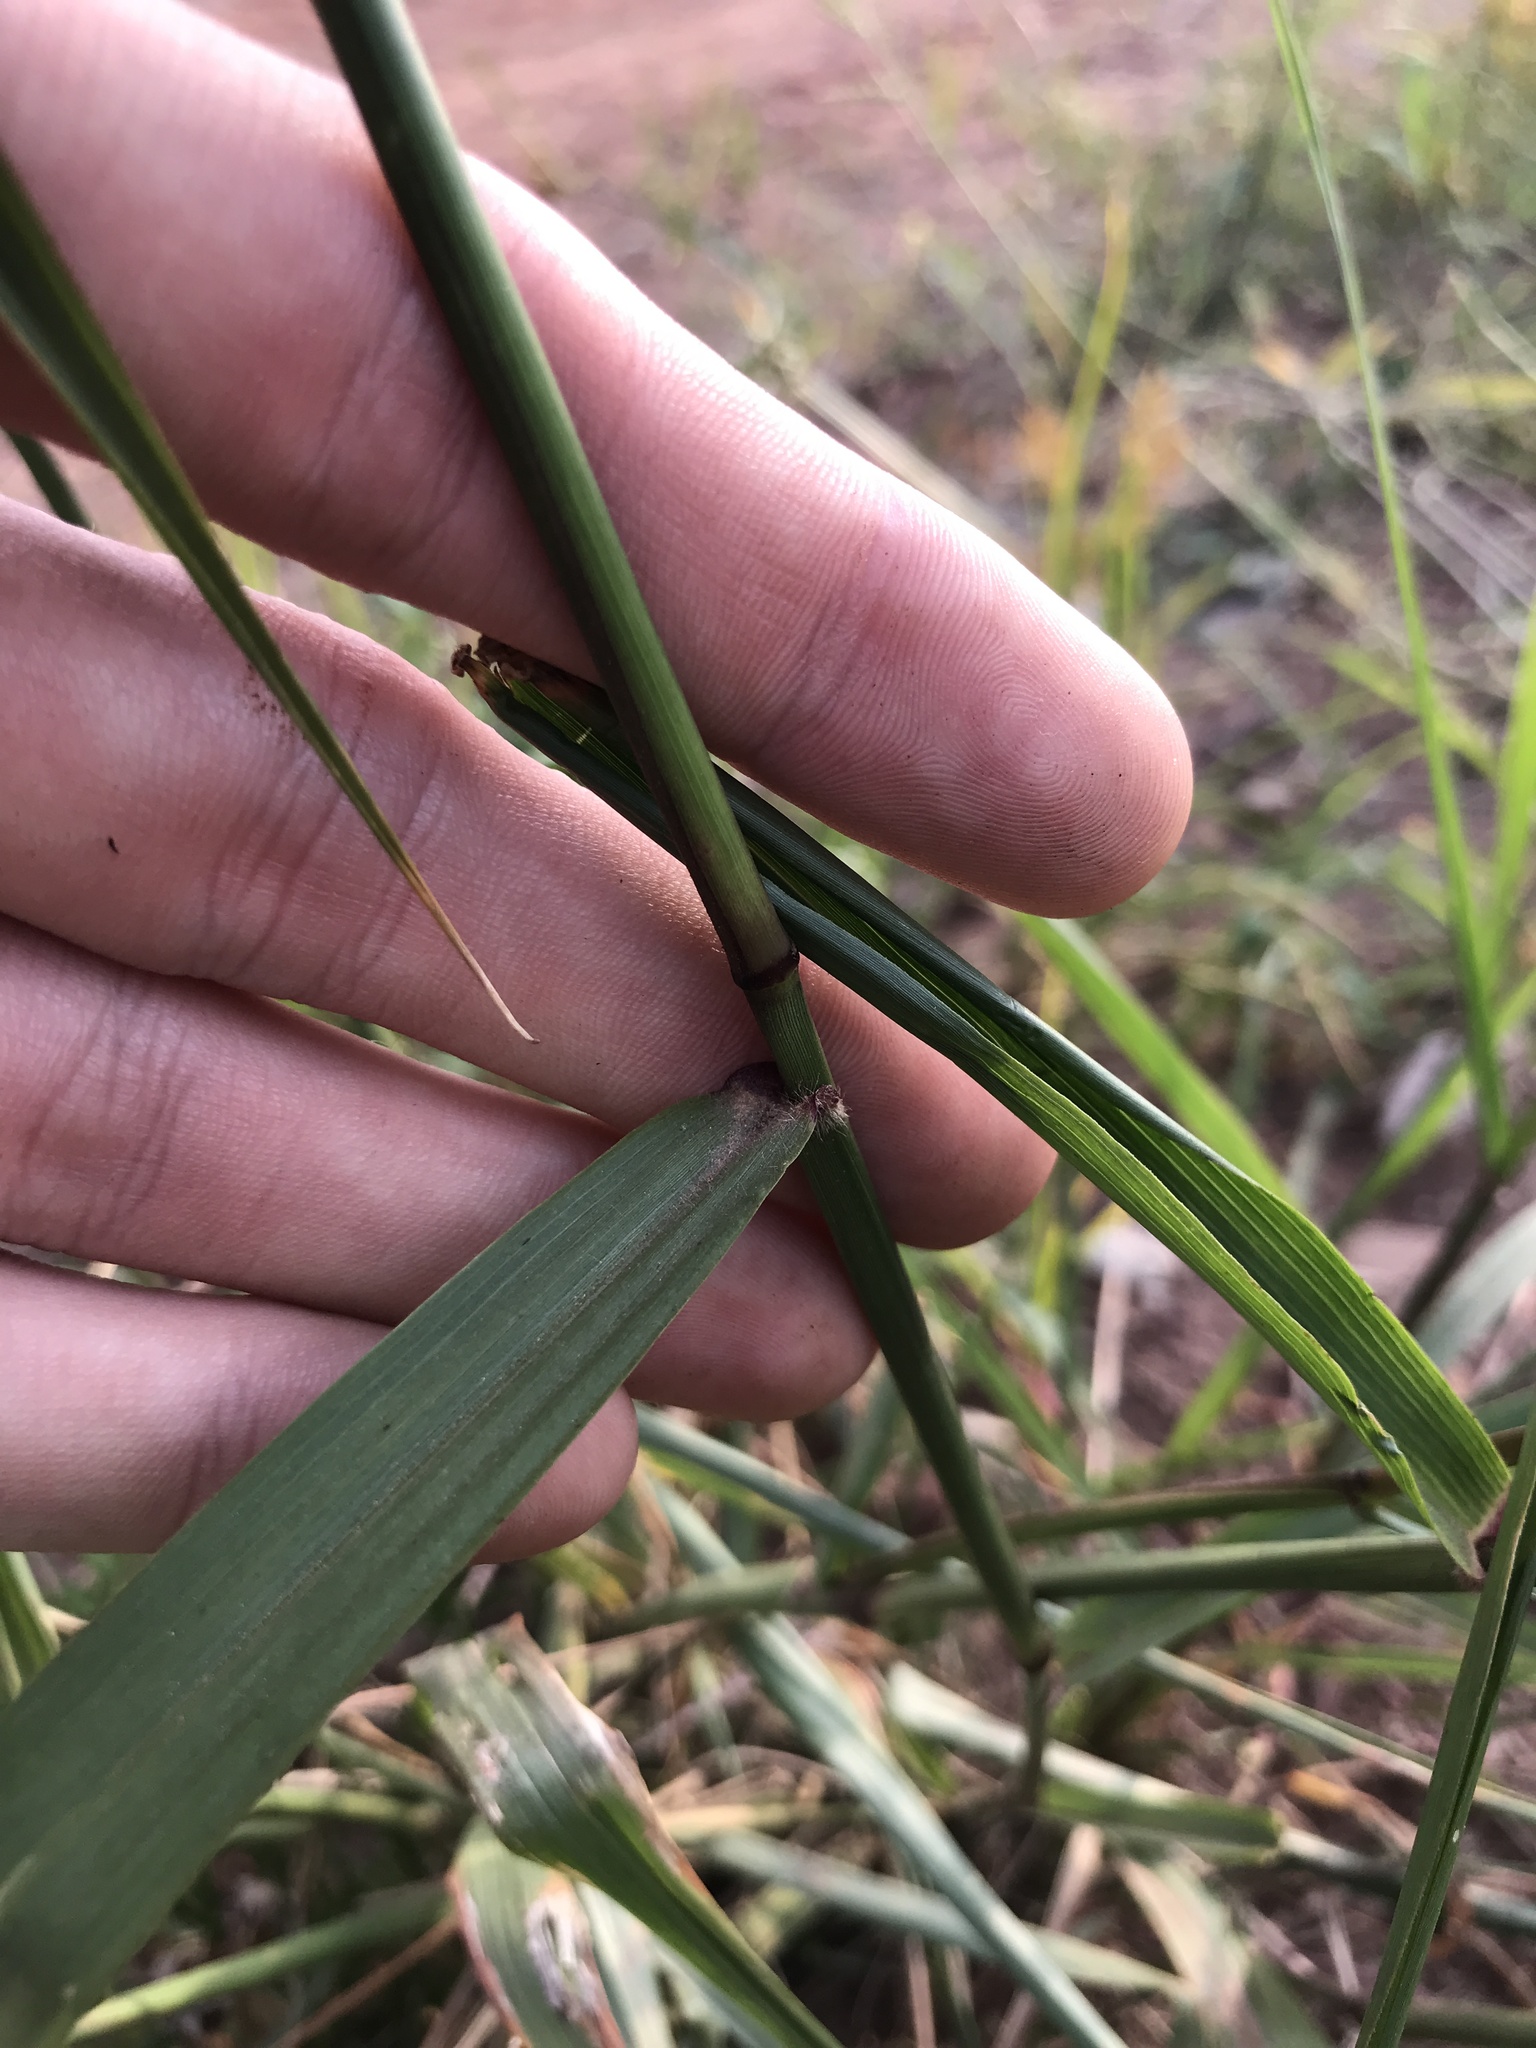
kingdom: Plantae
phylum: Tracheophyta
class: Liliopsida
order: Poales
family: Poaceae
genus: Tridens
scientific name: Tridens flavus
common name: Purpletop
